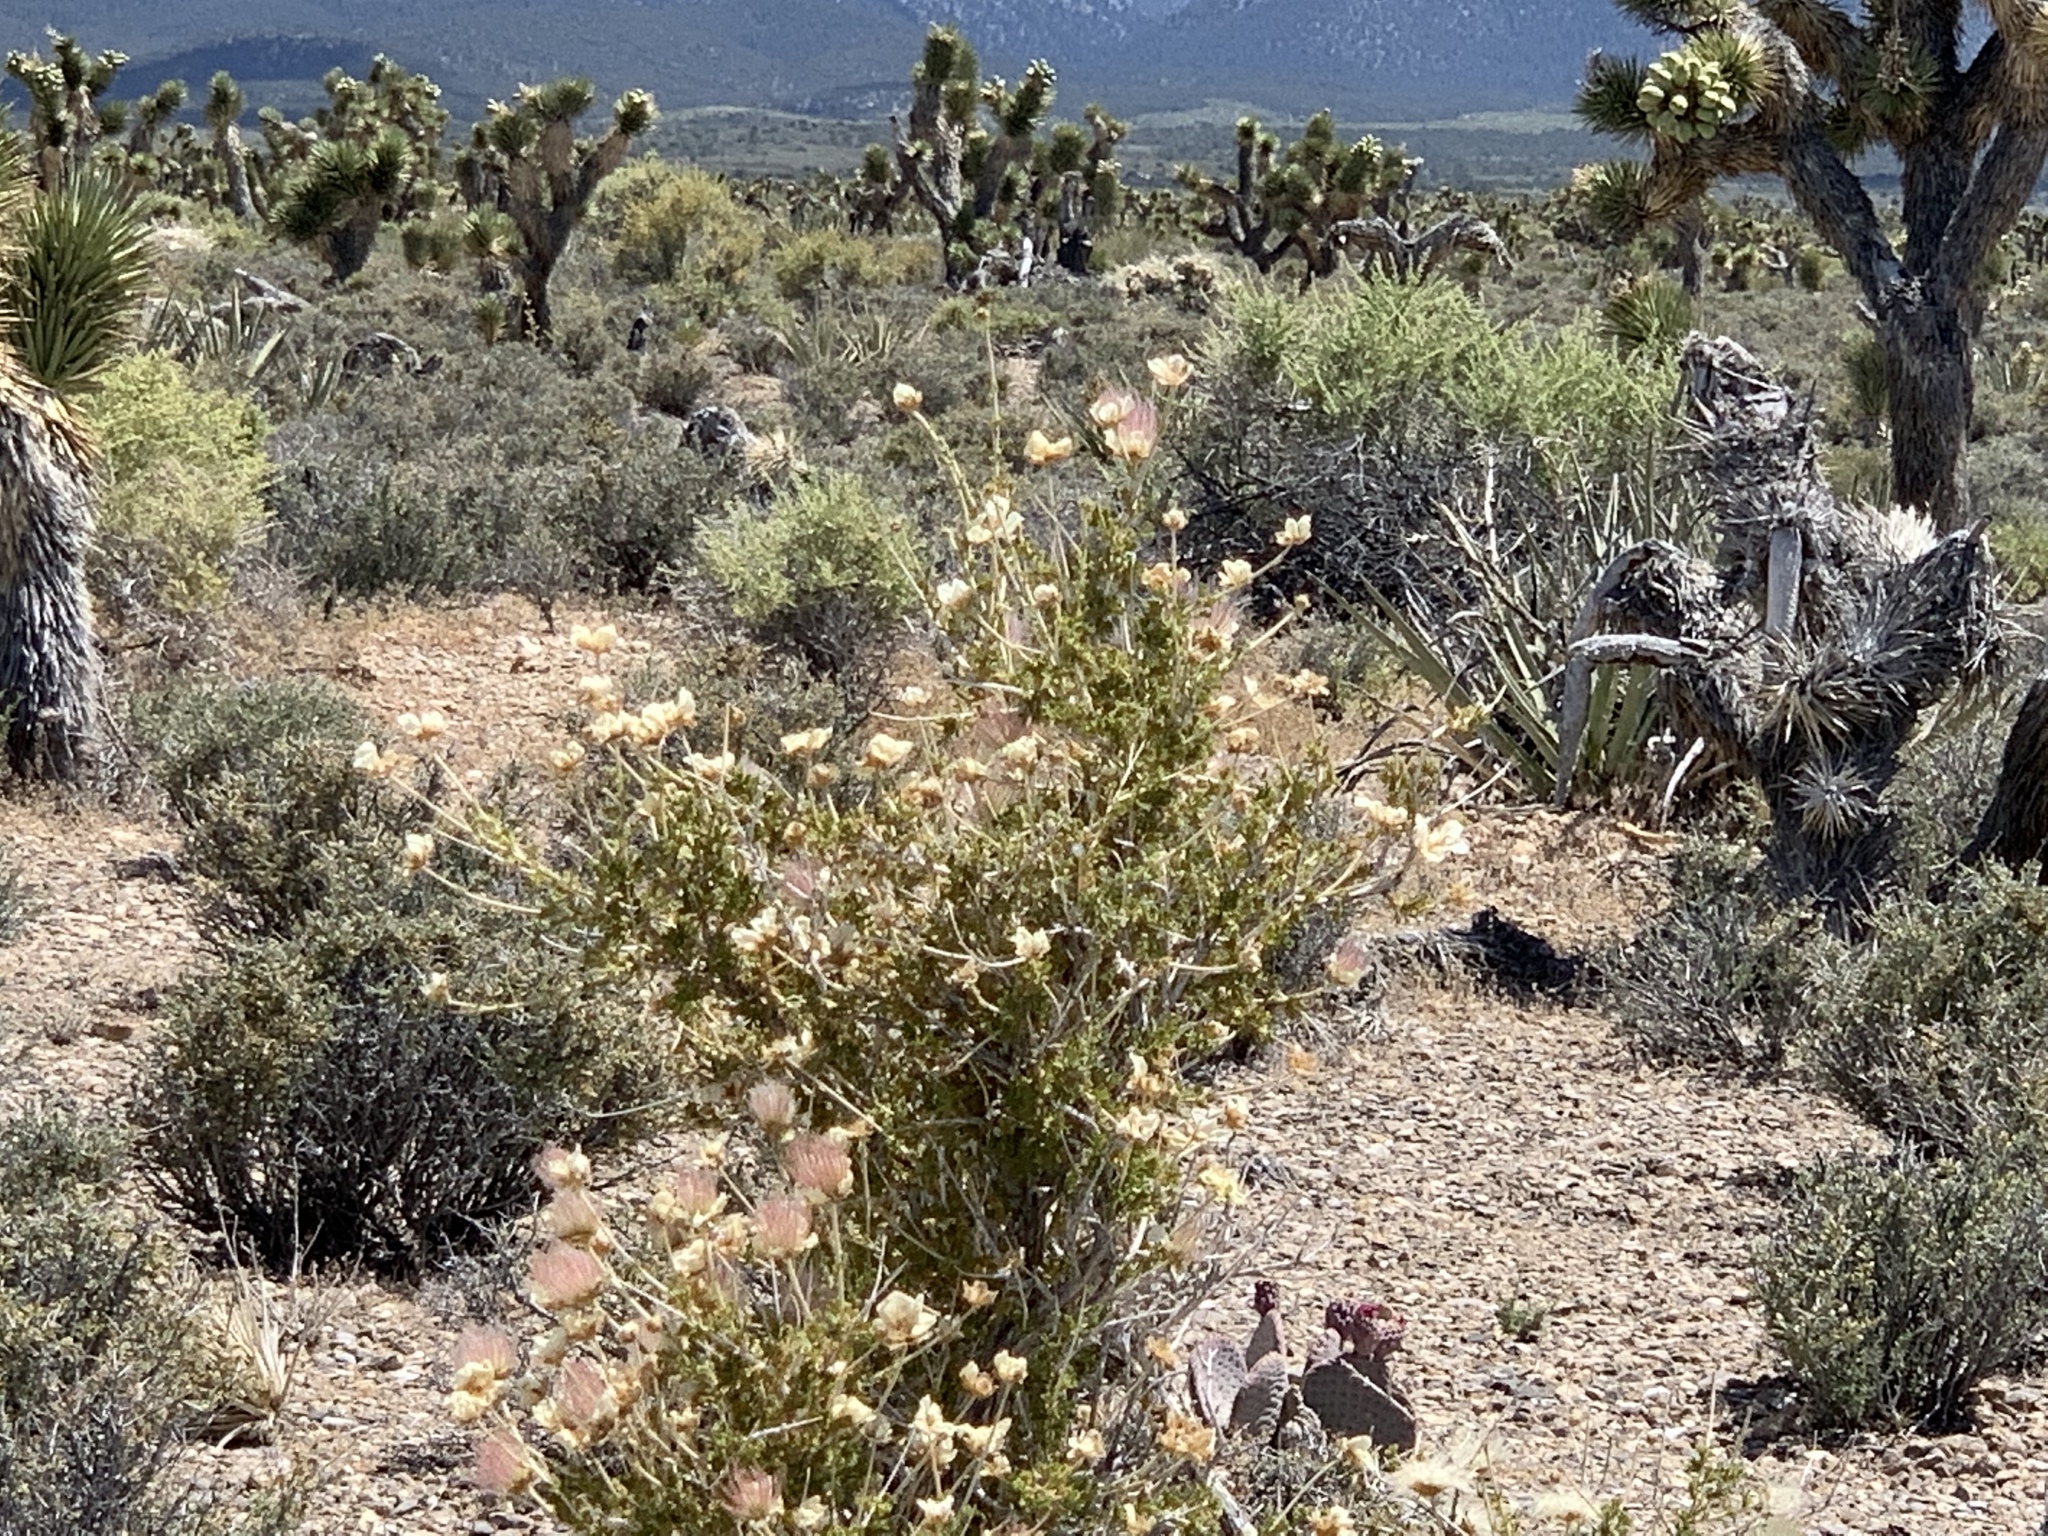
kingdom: Plantae
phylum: Tracheophyta
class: Magnoliopsida
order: Rosales
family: Rosaceae
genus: Fallugia
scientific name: Fallugia paradoxa
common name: Apache-plume
